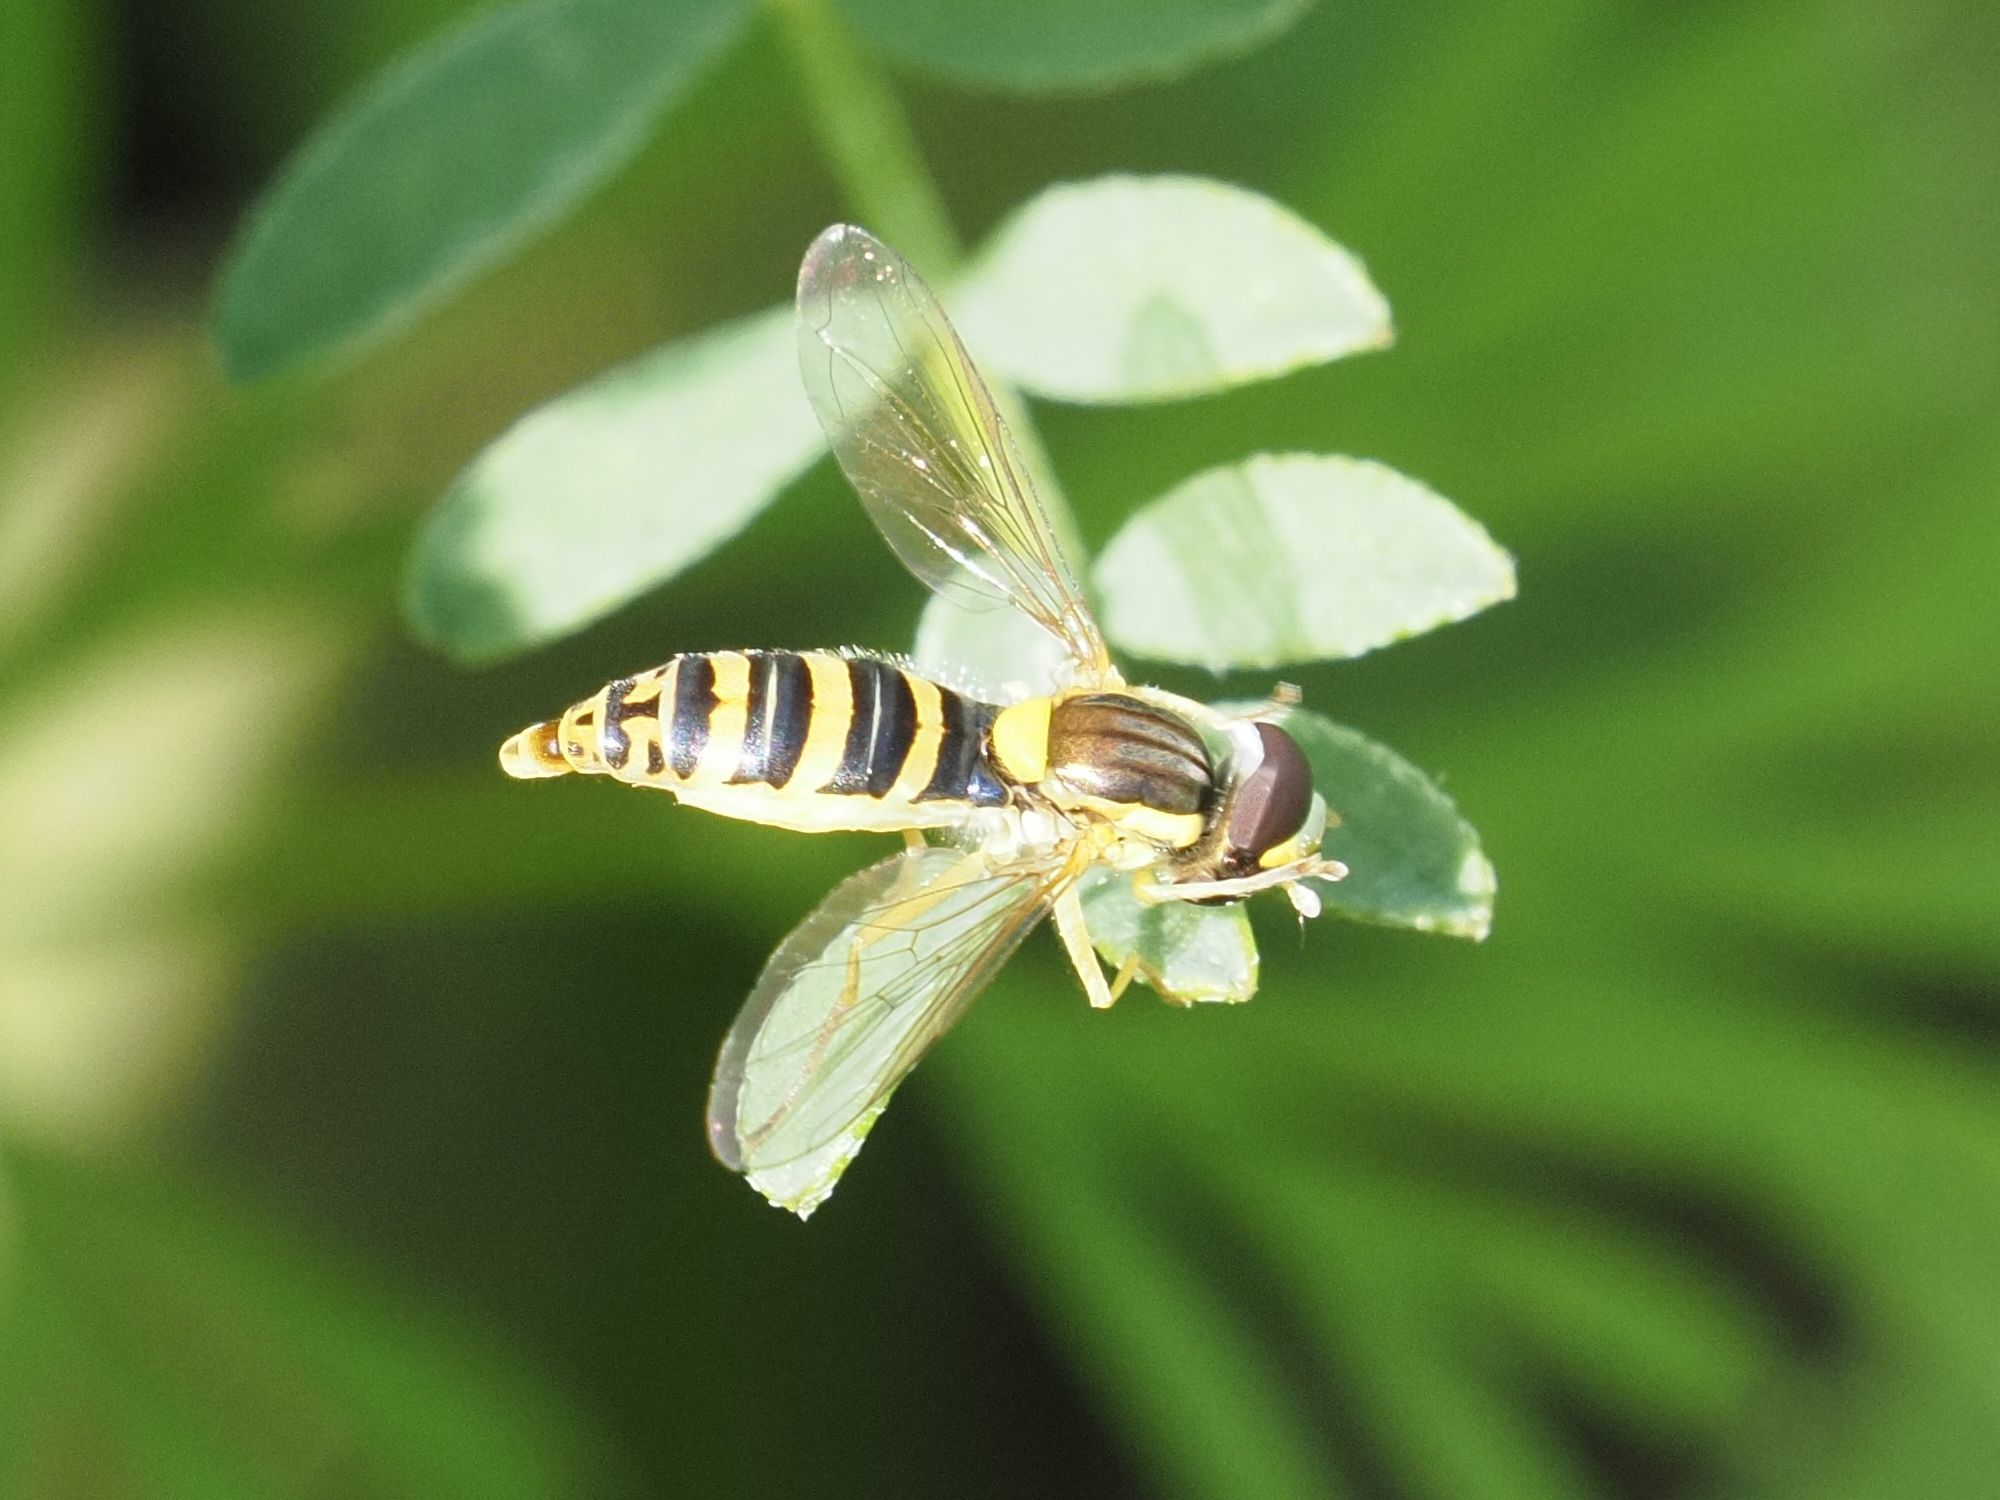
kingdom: Animalia
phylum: Arthropoda
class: Insecta
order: Diptera
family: Syrphidae
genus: Sphaerophoria
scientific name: Sphaerophoria
